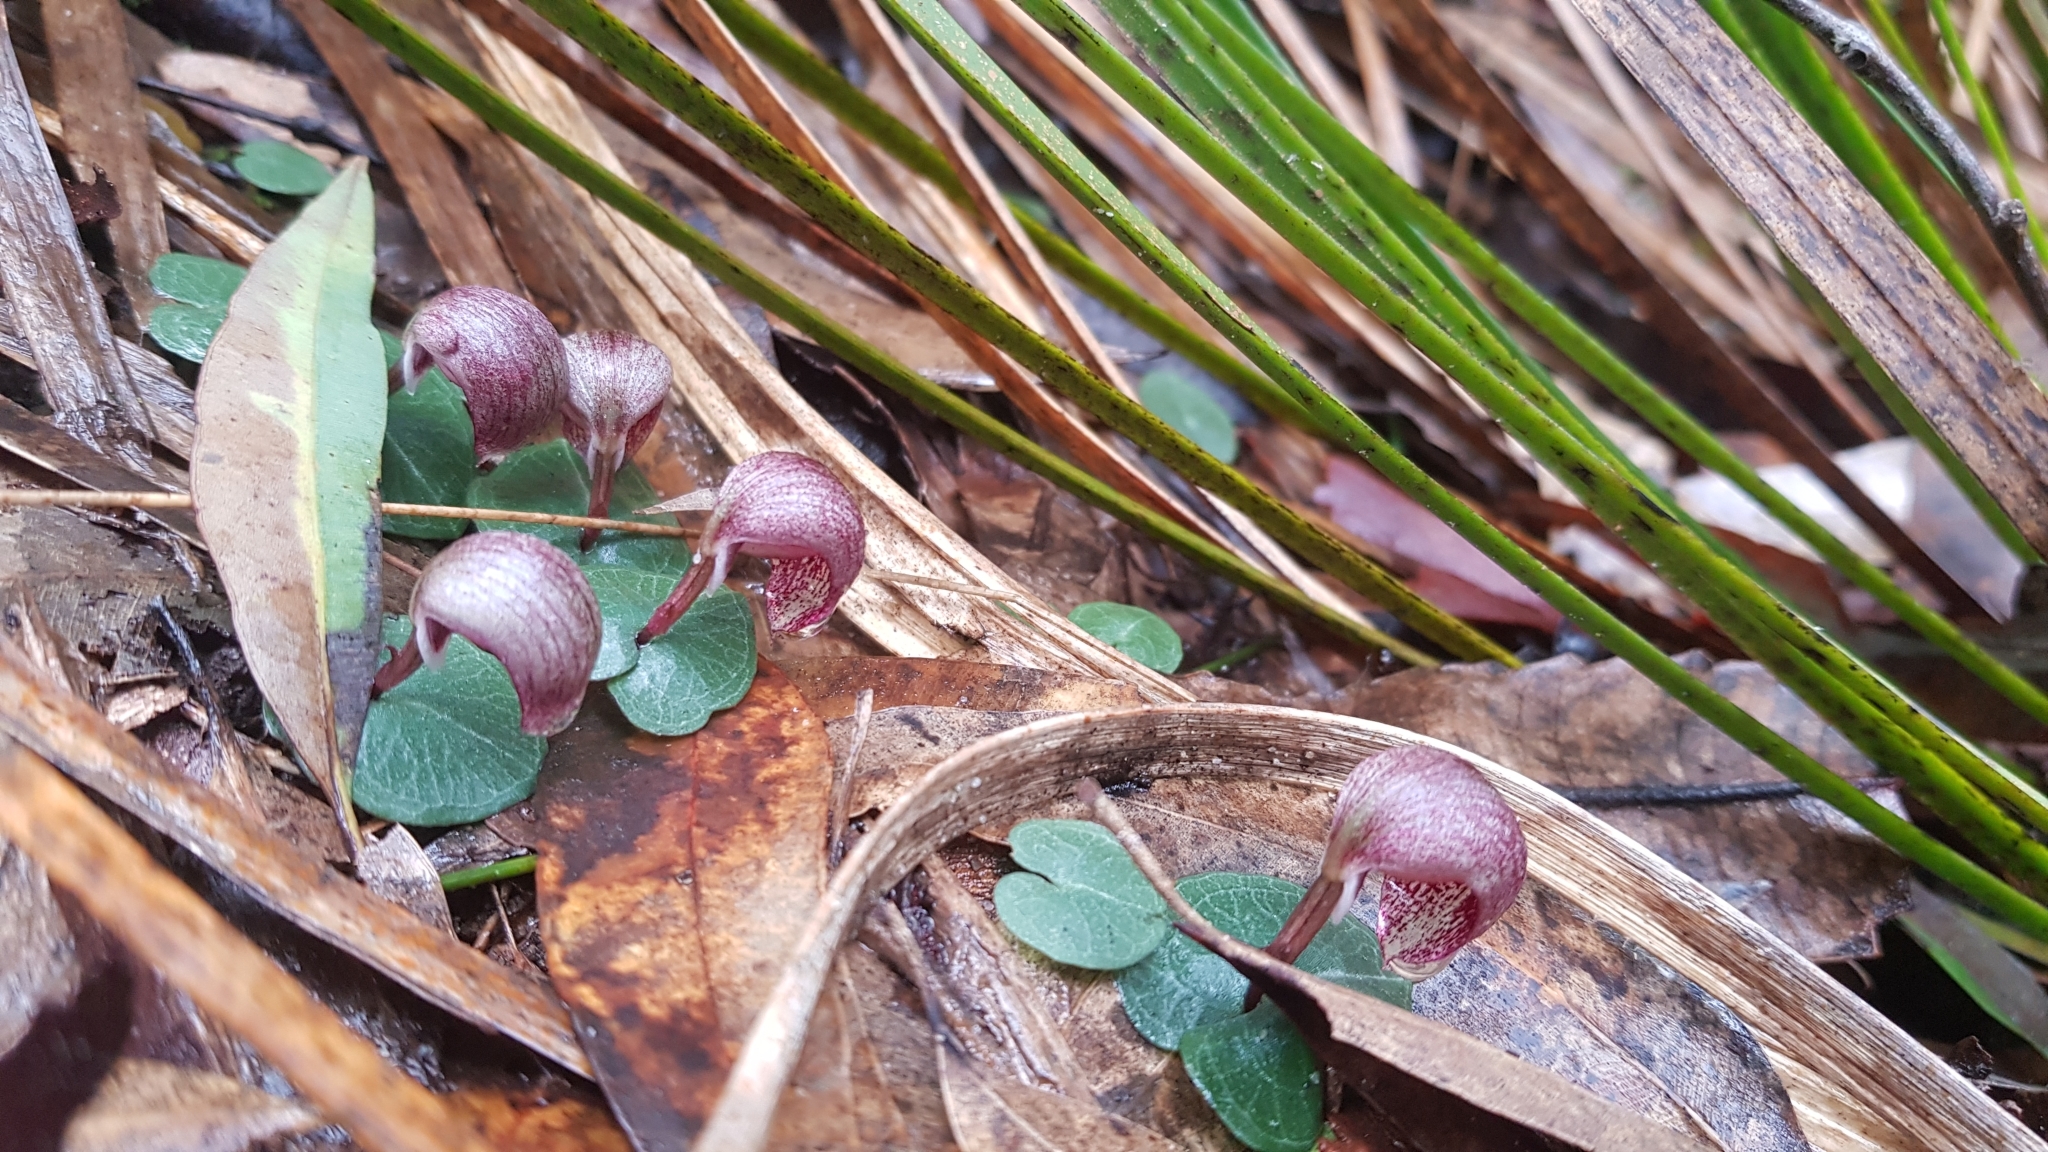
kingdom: Plantae
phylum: Tracheophyta
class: Liliopsida
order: Asparagales
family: Orchidaceae
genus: Corybas
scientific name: Corybas aconitiflorus
